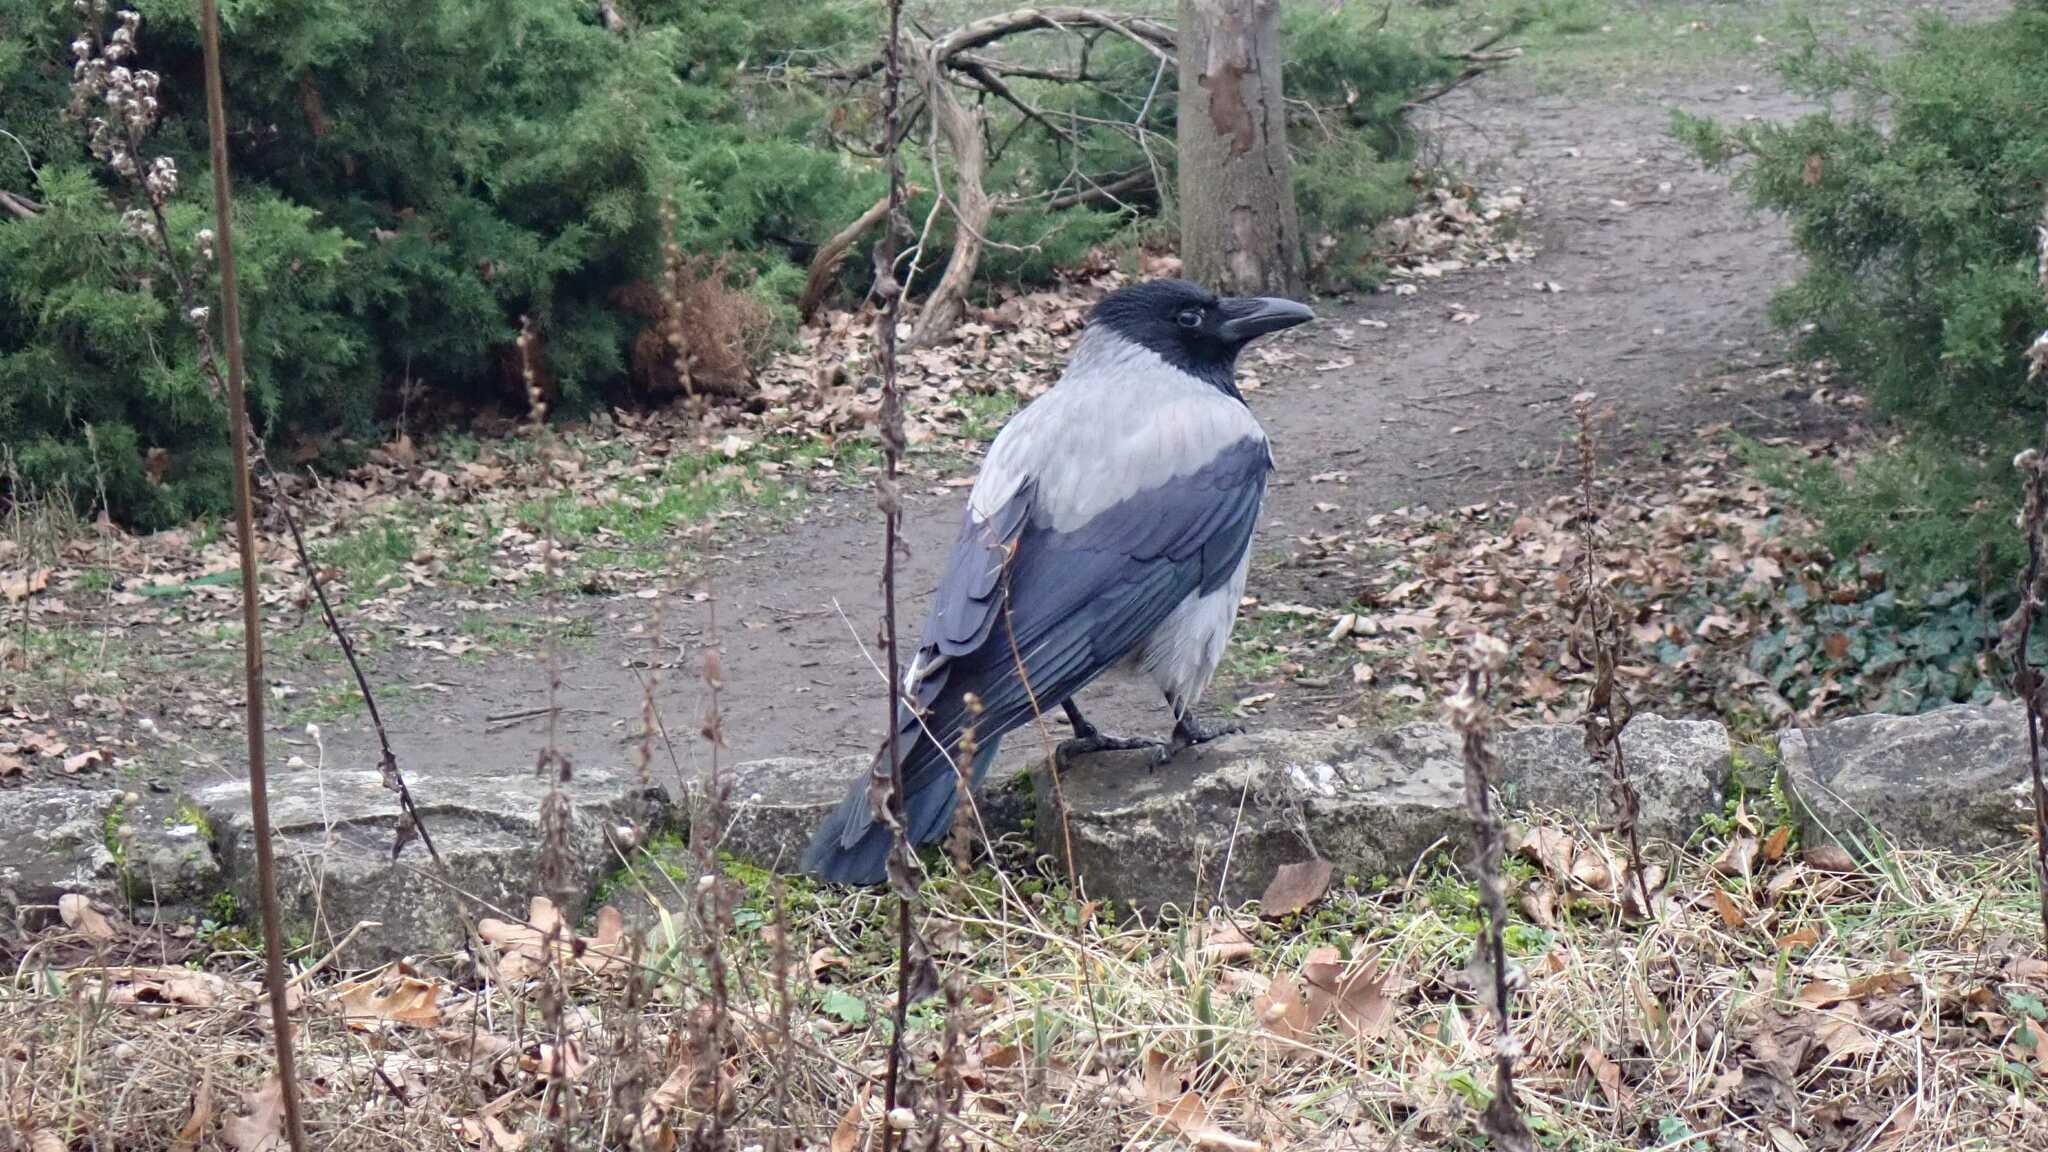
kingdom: Animalia
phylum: Chordata
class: Aves
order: Passeriformes
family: Corvidae
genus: Corvus
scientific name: Corvus cornix
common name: Hooded crow
